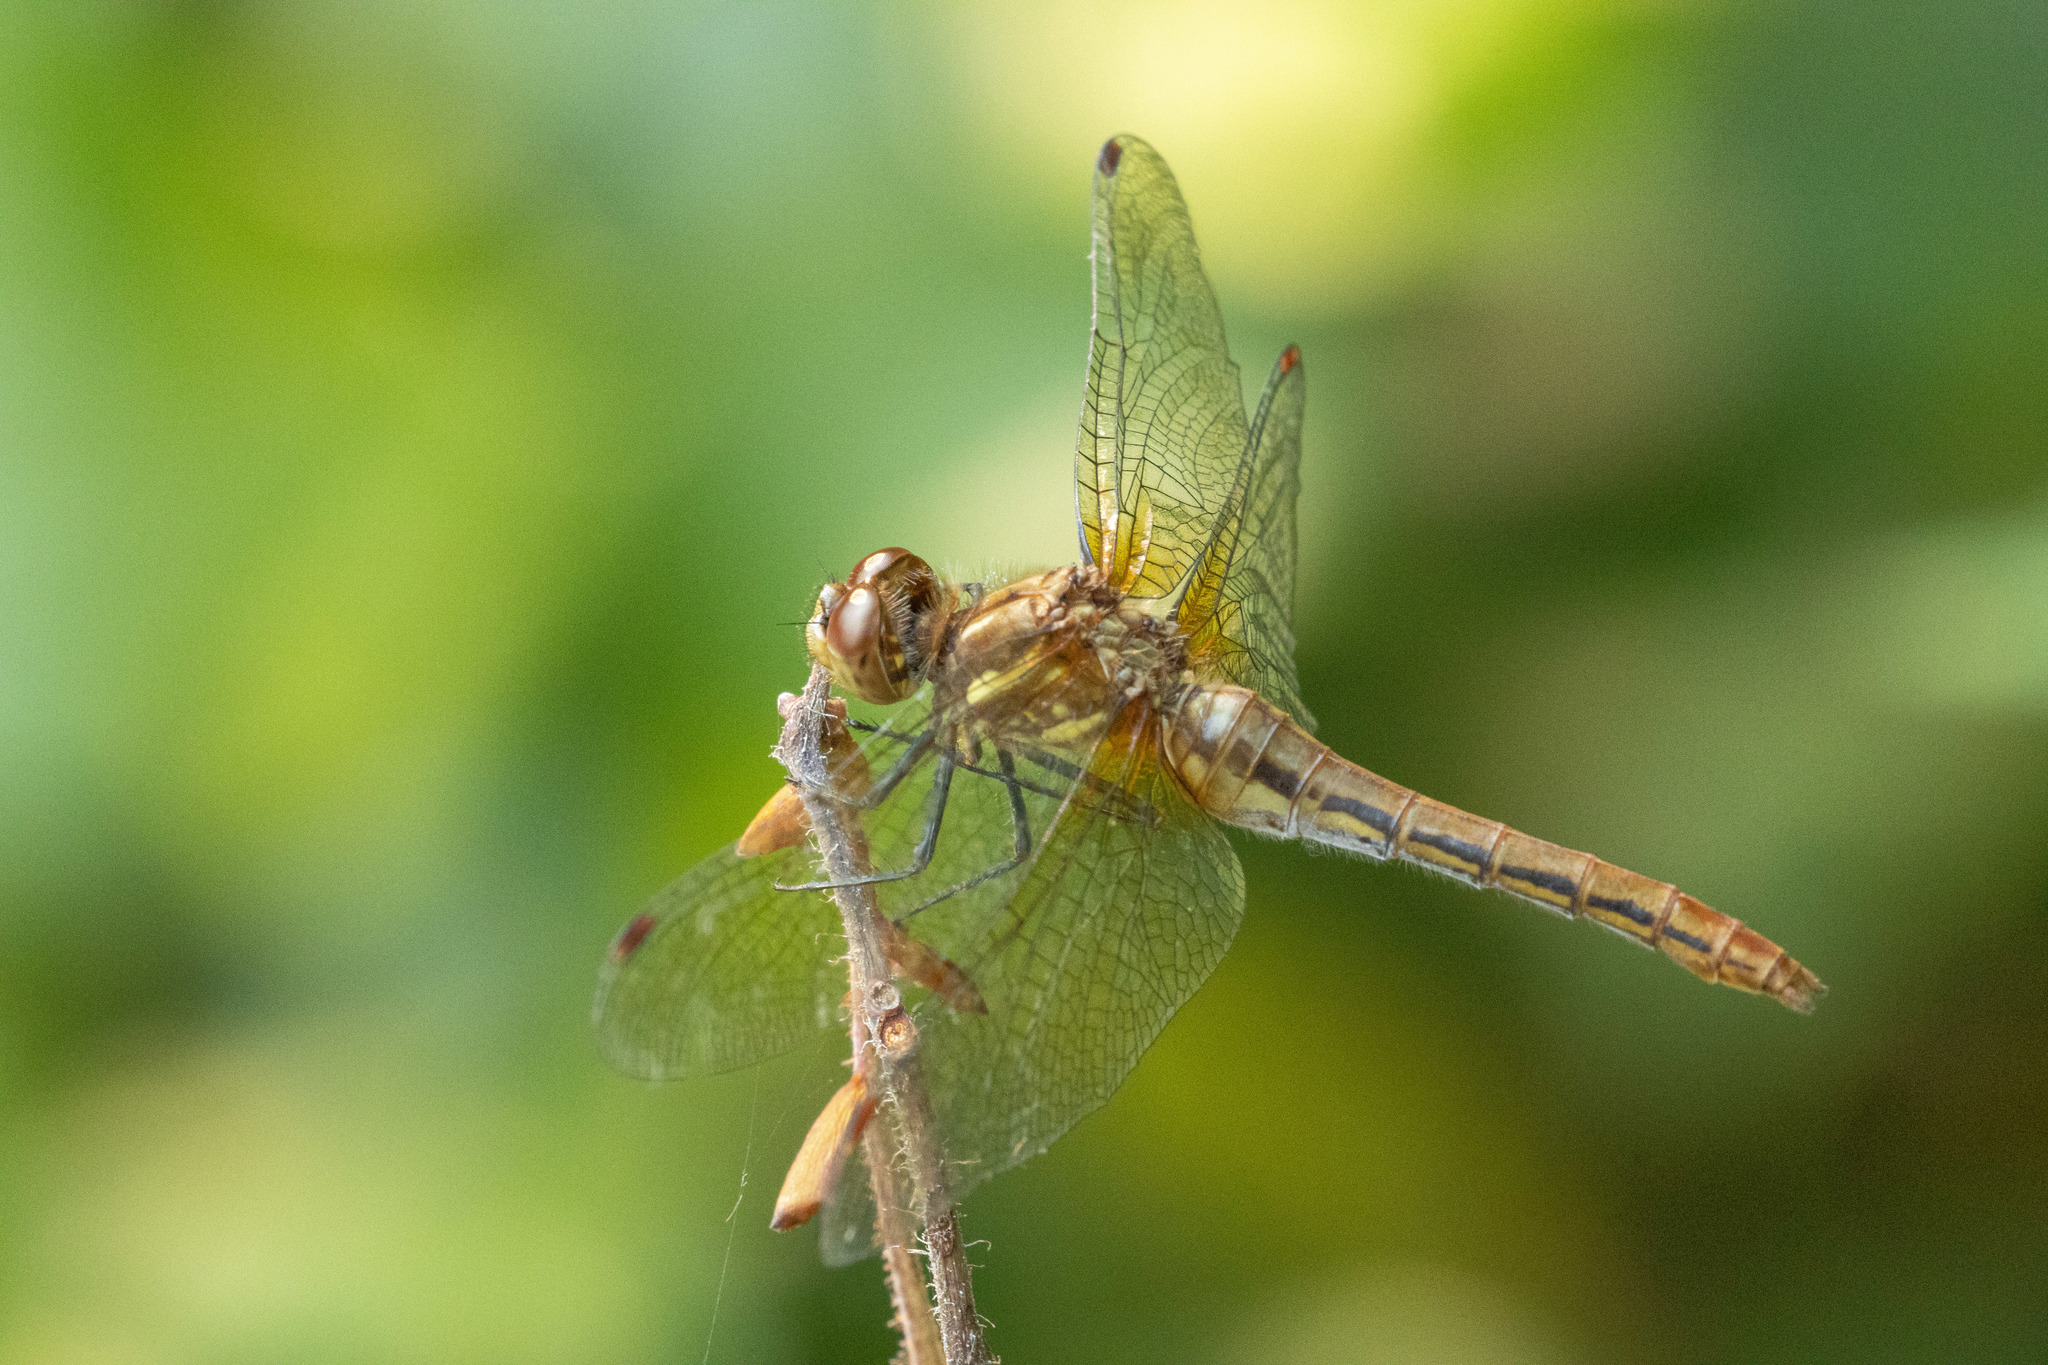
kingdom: Animalia
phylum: Arthropoda
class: Insecta
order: Odonata
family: Libellulidae
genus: Sympetrum
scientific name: Sympetrum pallipes
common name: Striped meadowhawk
